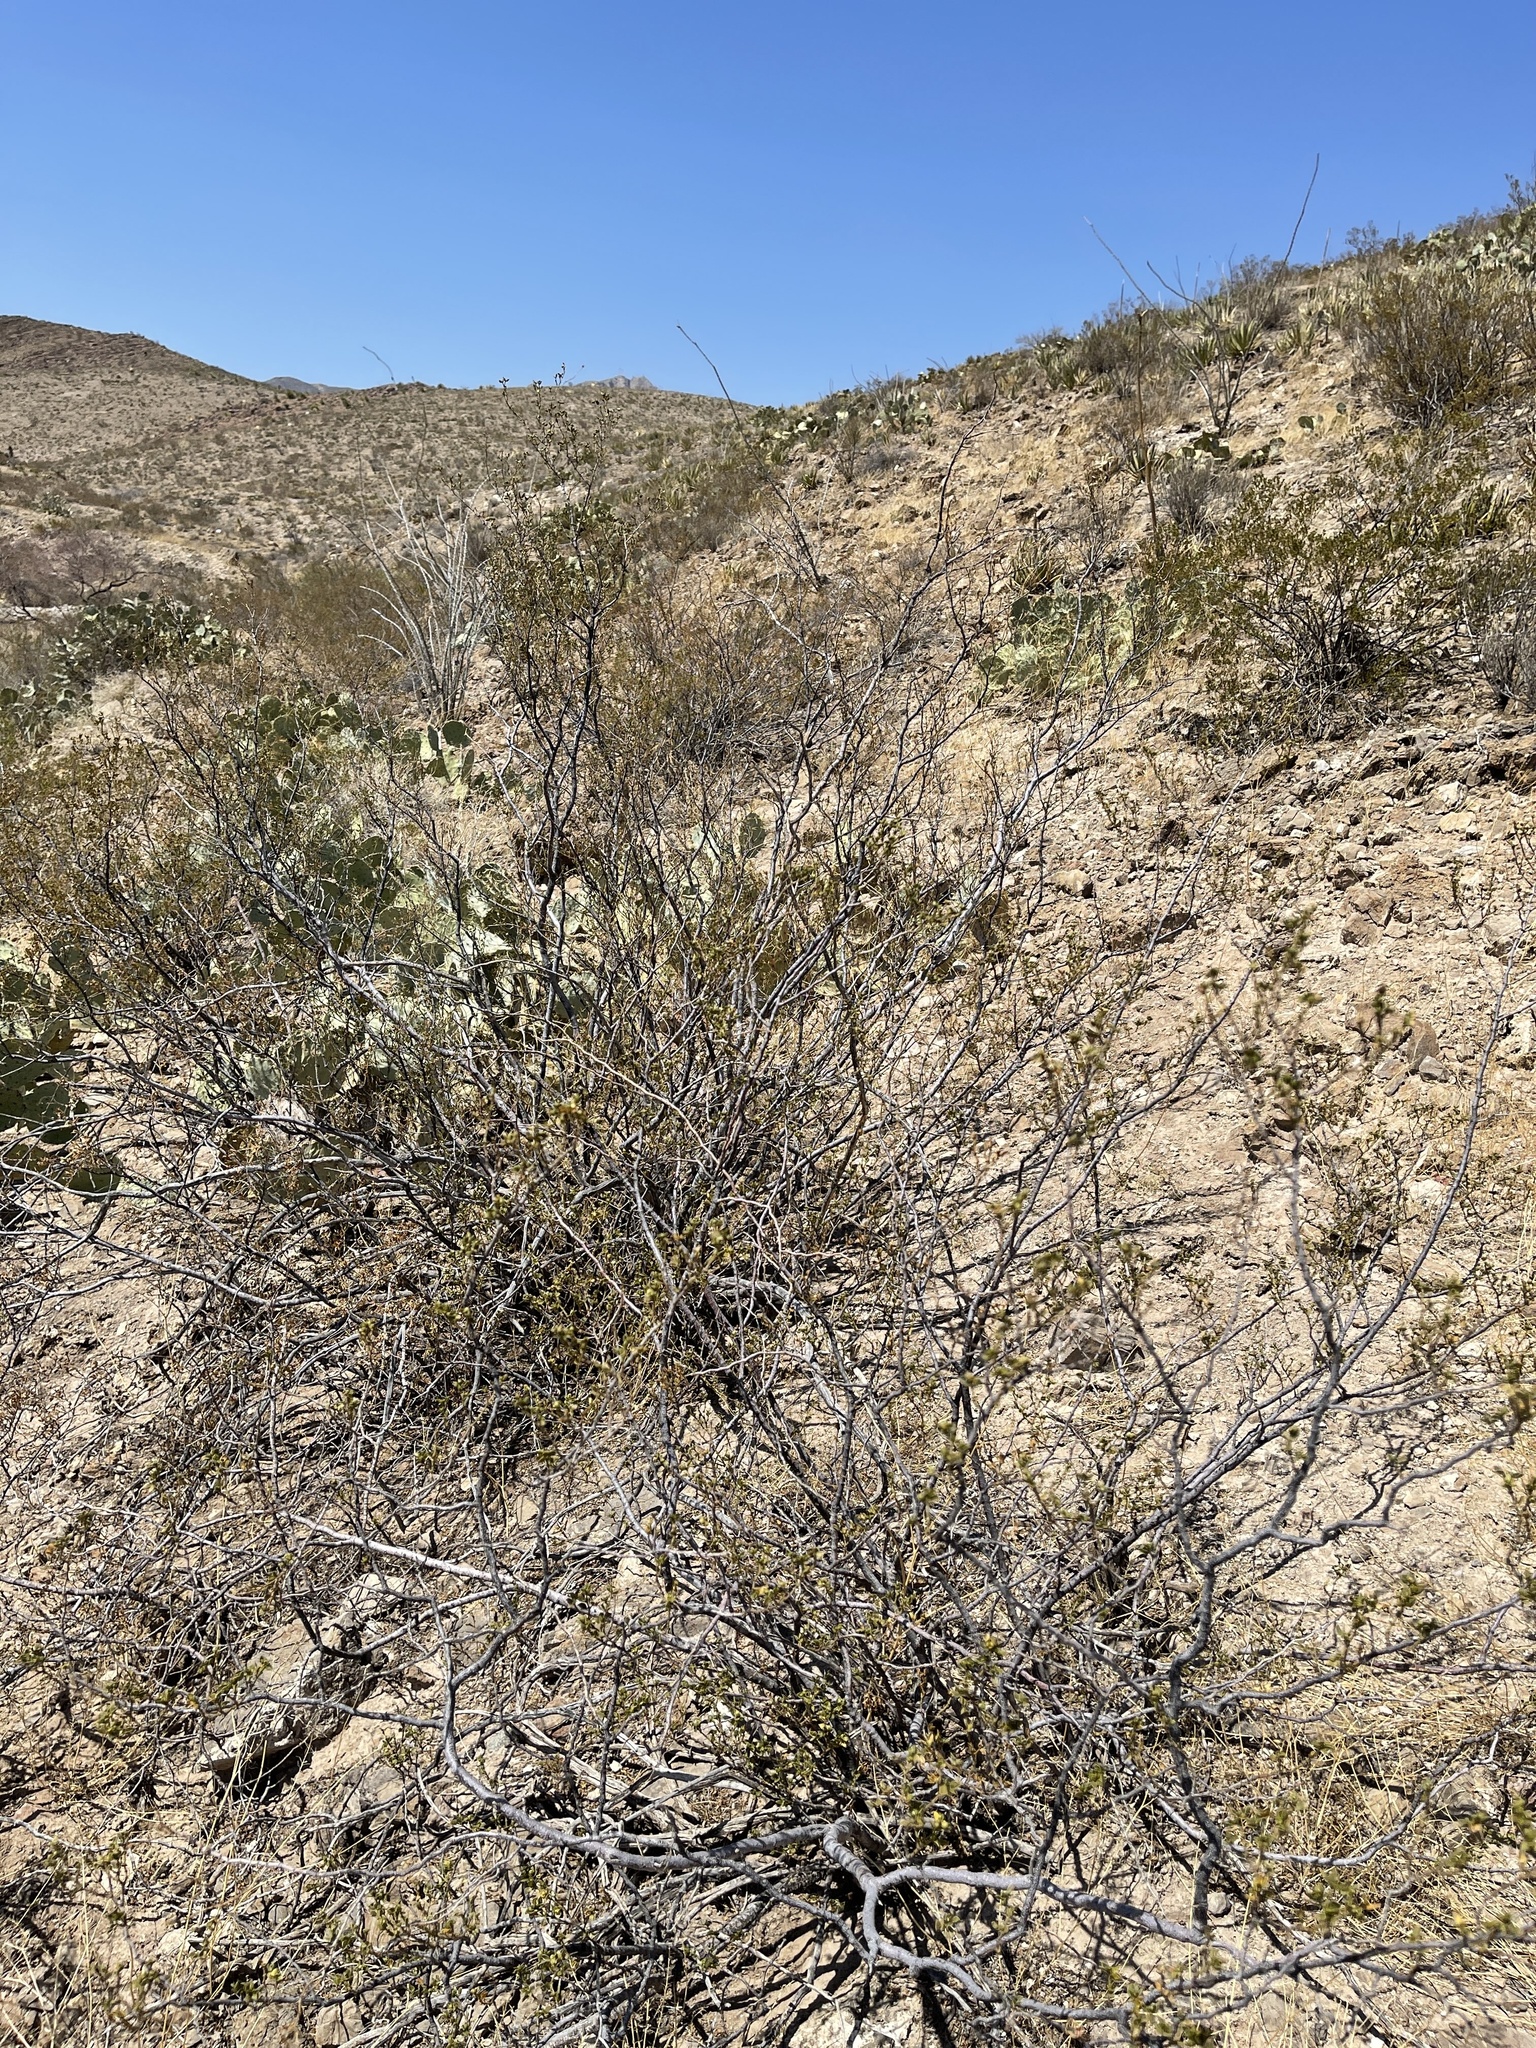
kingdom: Plantae
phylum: Tracheophyta
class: Magnoliopsida
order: Zygophyllales
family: Zygophyllaceae
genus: Larrea
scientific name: Larrea tridentata
